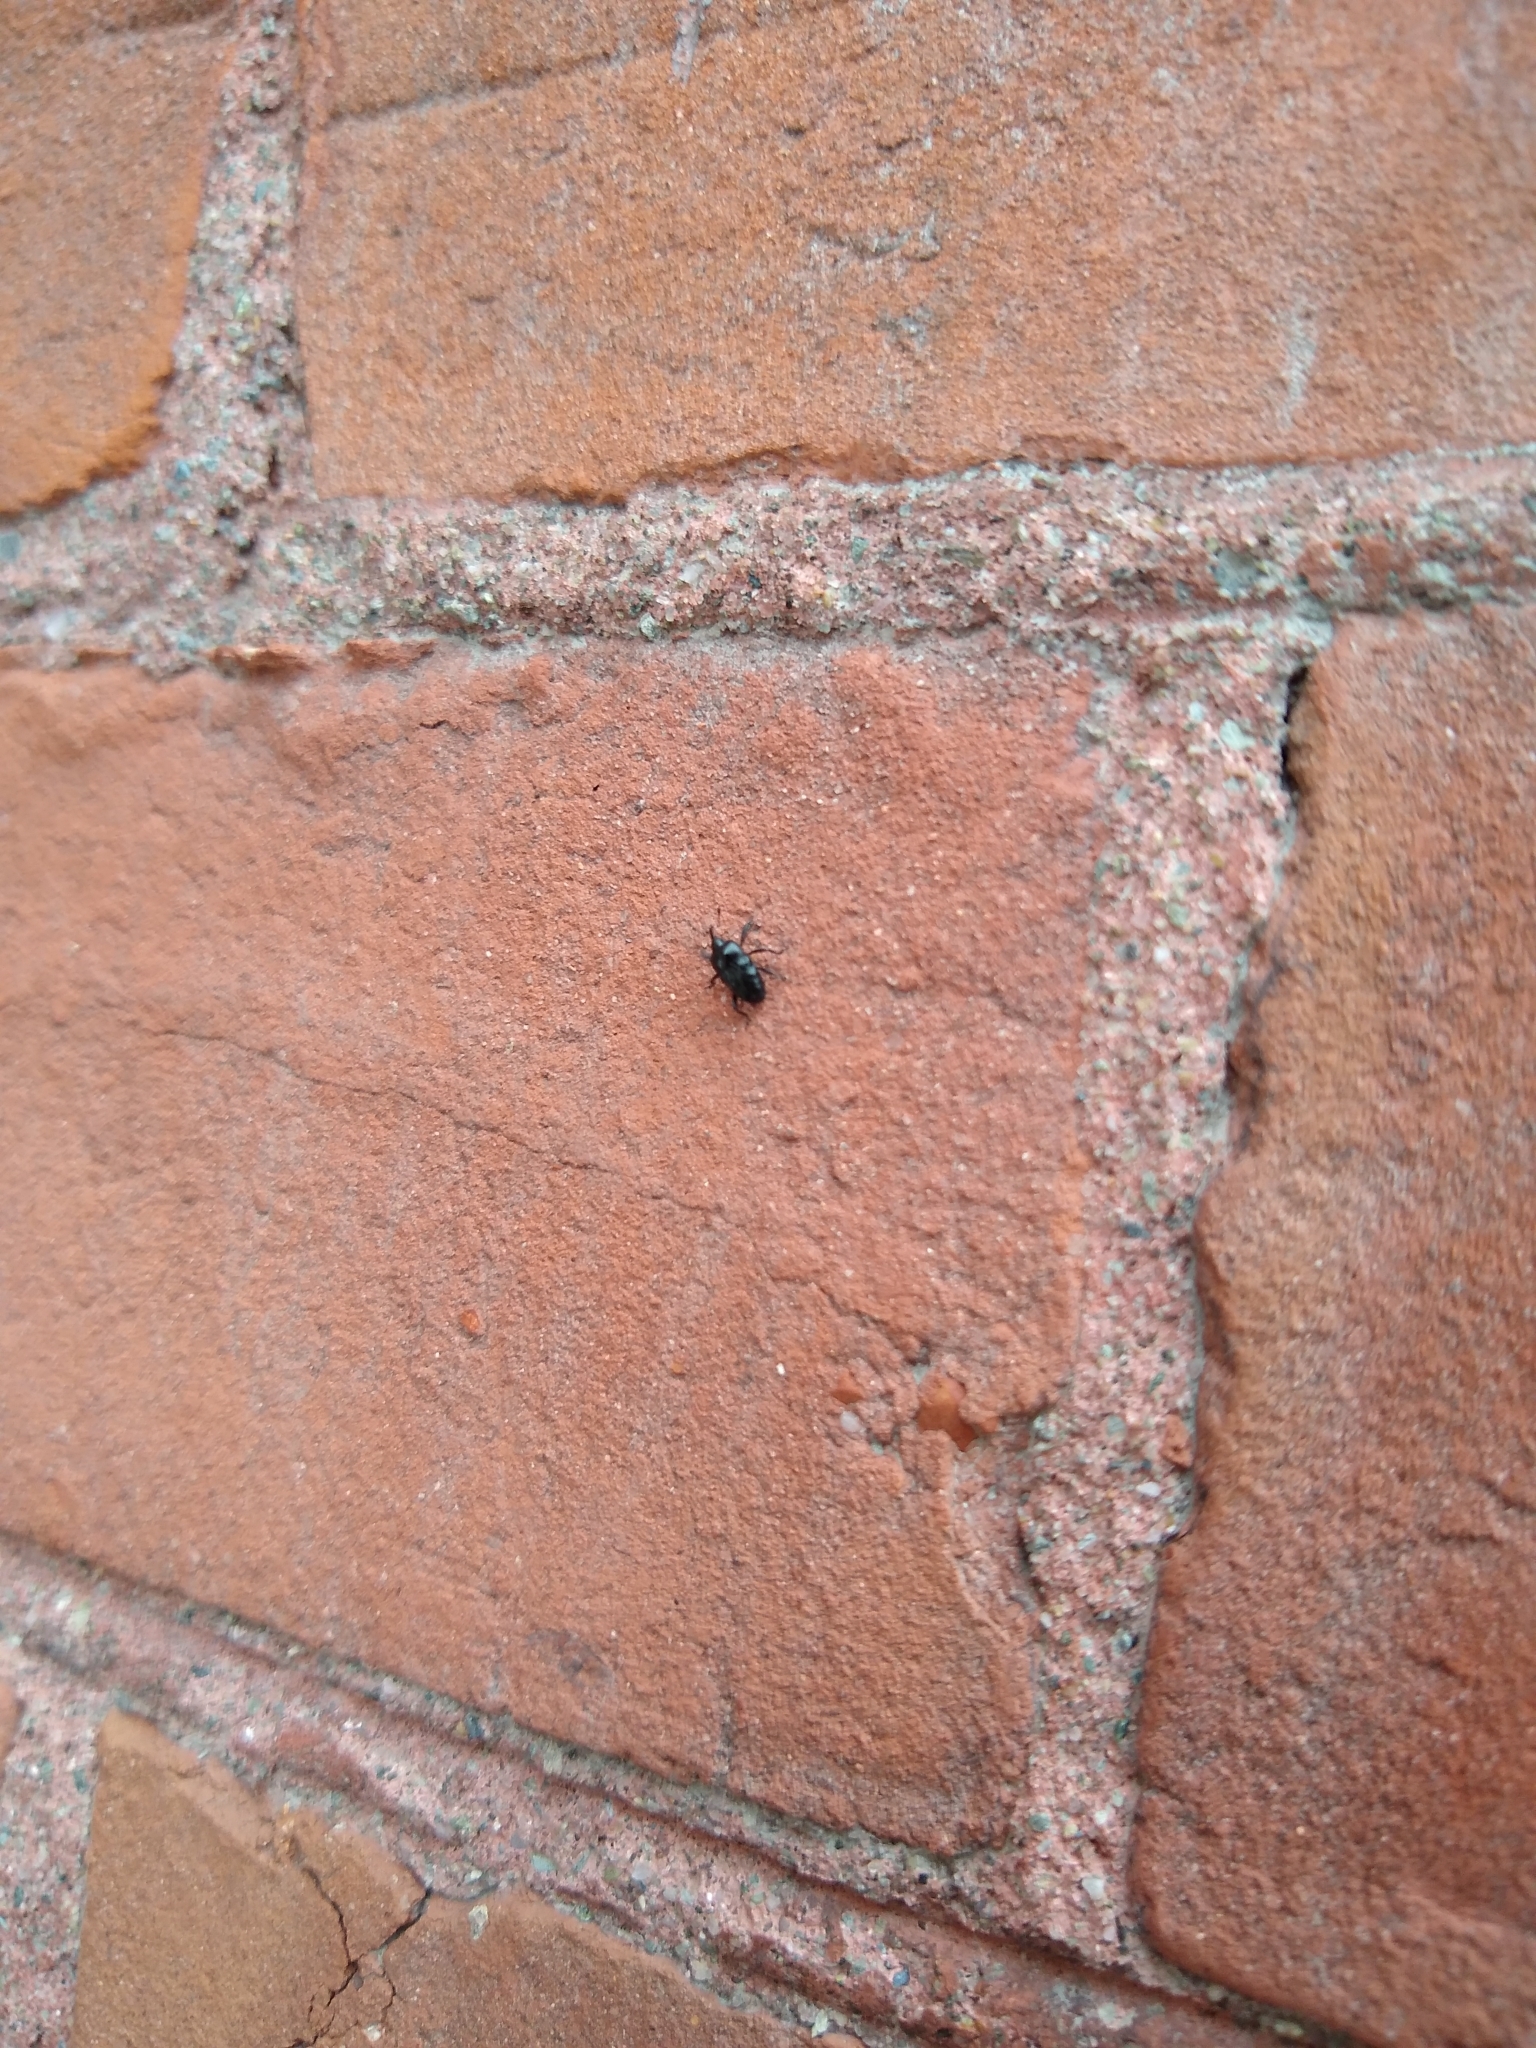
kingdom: Animalia
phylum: Arthropoda
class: Insecta
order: Coleoptera
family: Curculionidae
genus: Madarellus
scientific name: Madarellus undulatus
